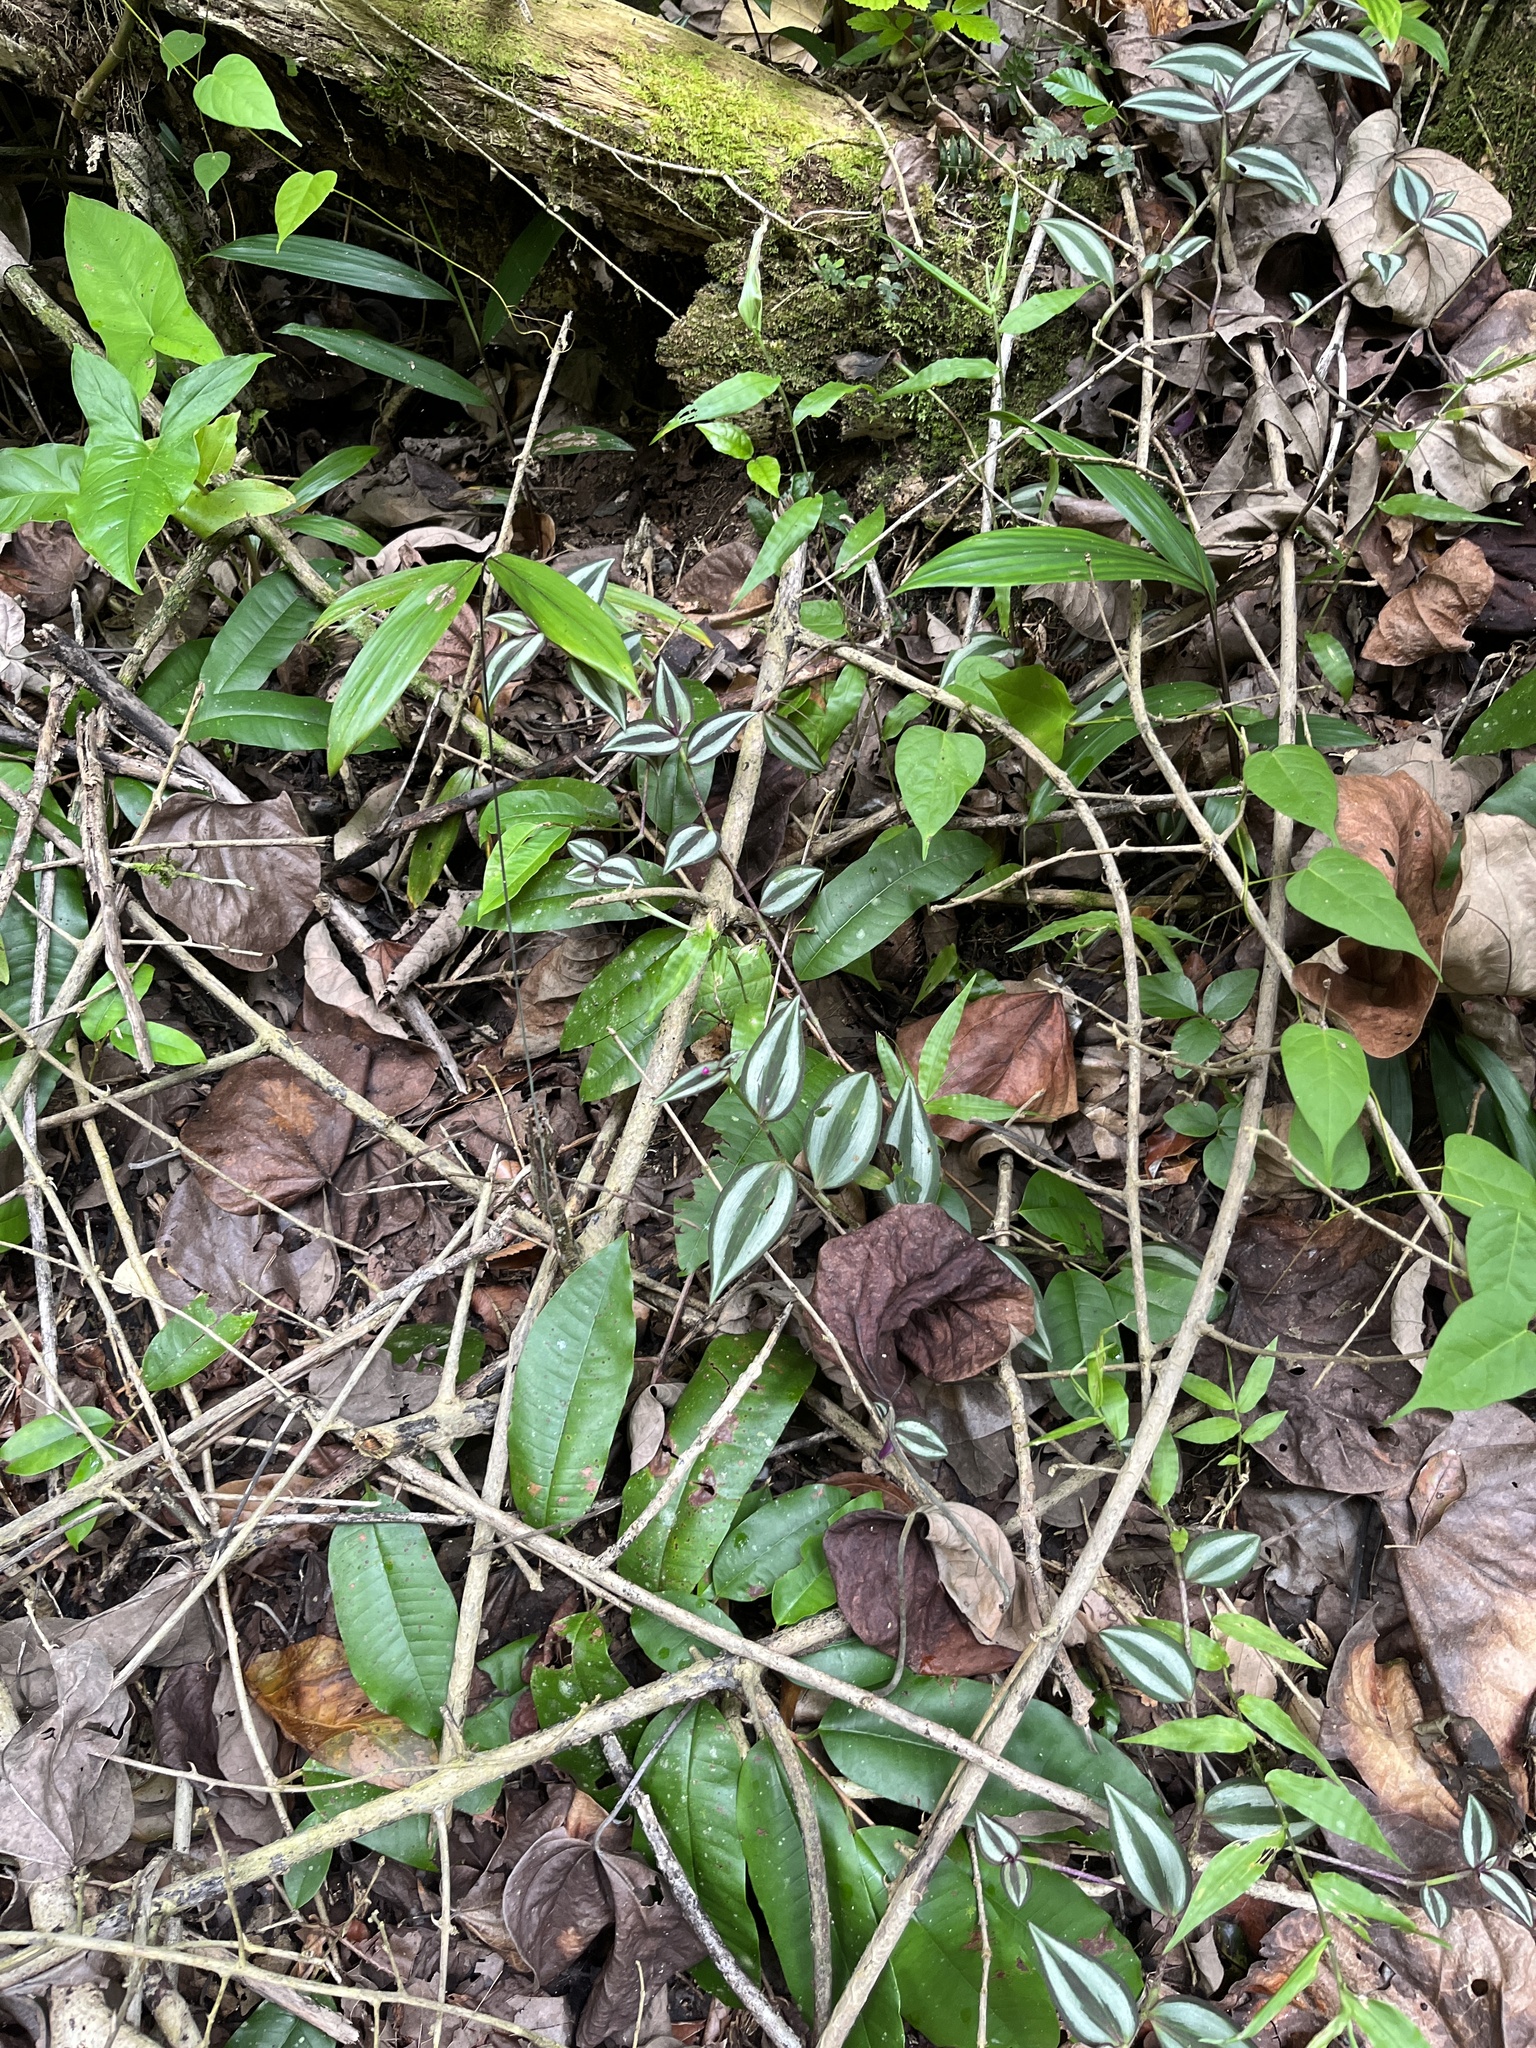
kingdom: Plantae
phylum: Tracheophyta
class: Liliopsida
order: Commelinales
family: Commelinaceae
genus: Tradescantia
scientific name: Tradescantia zebrina
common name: Inchplant
